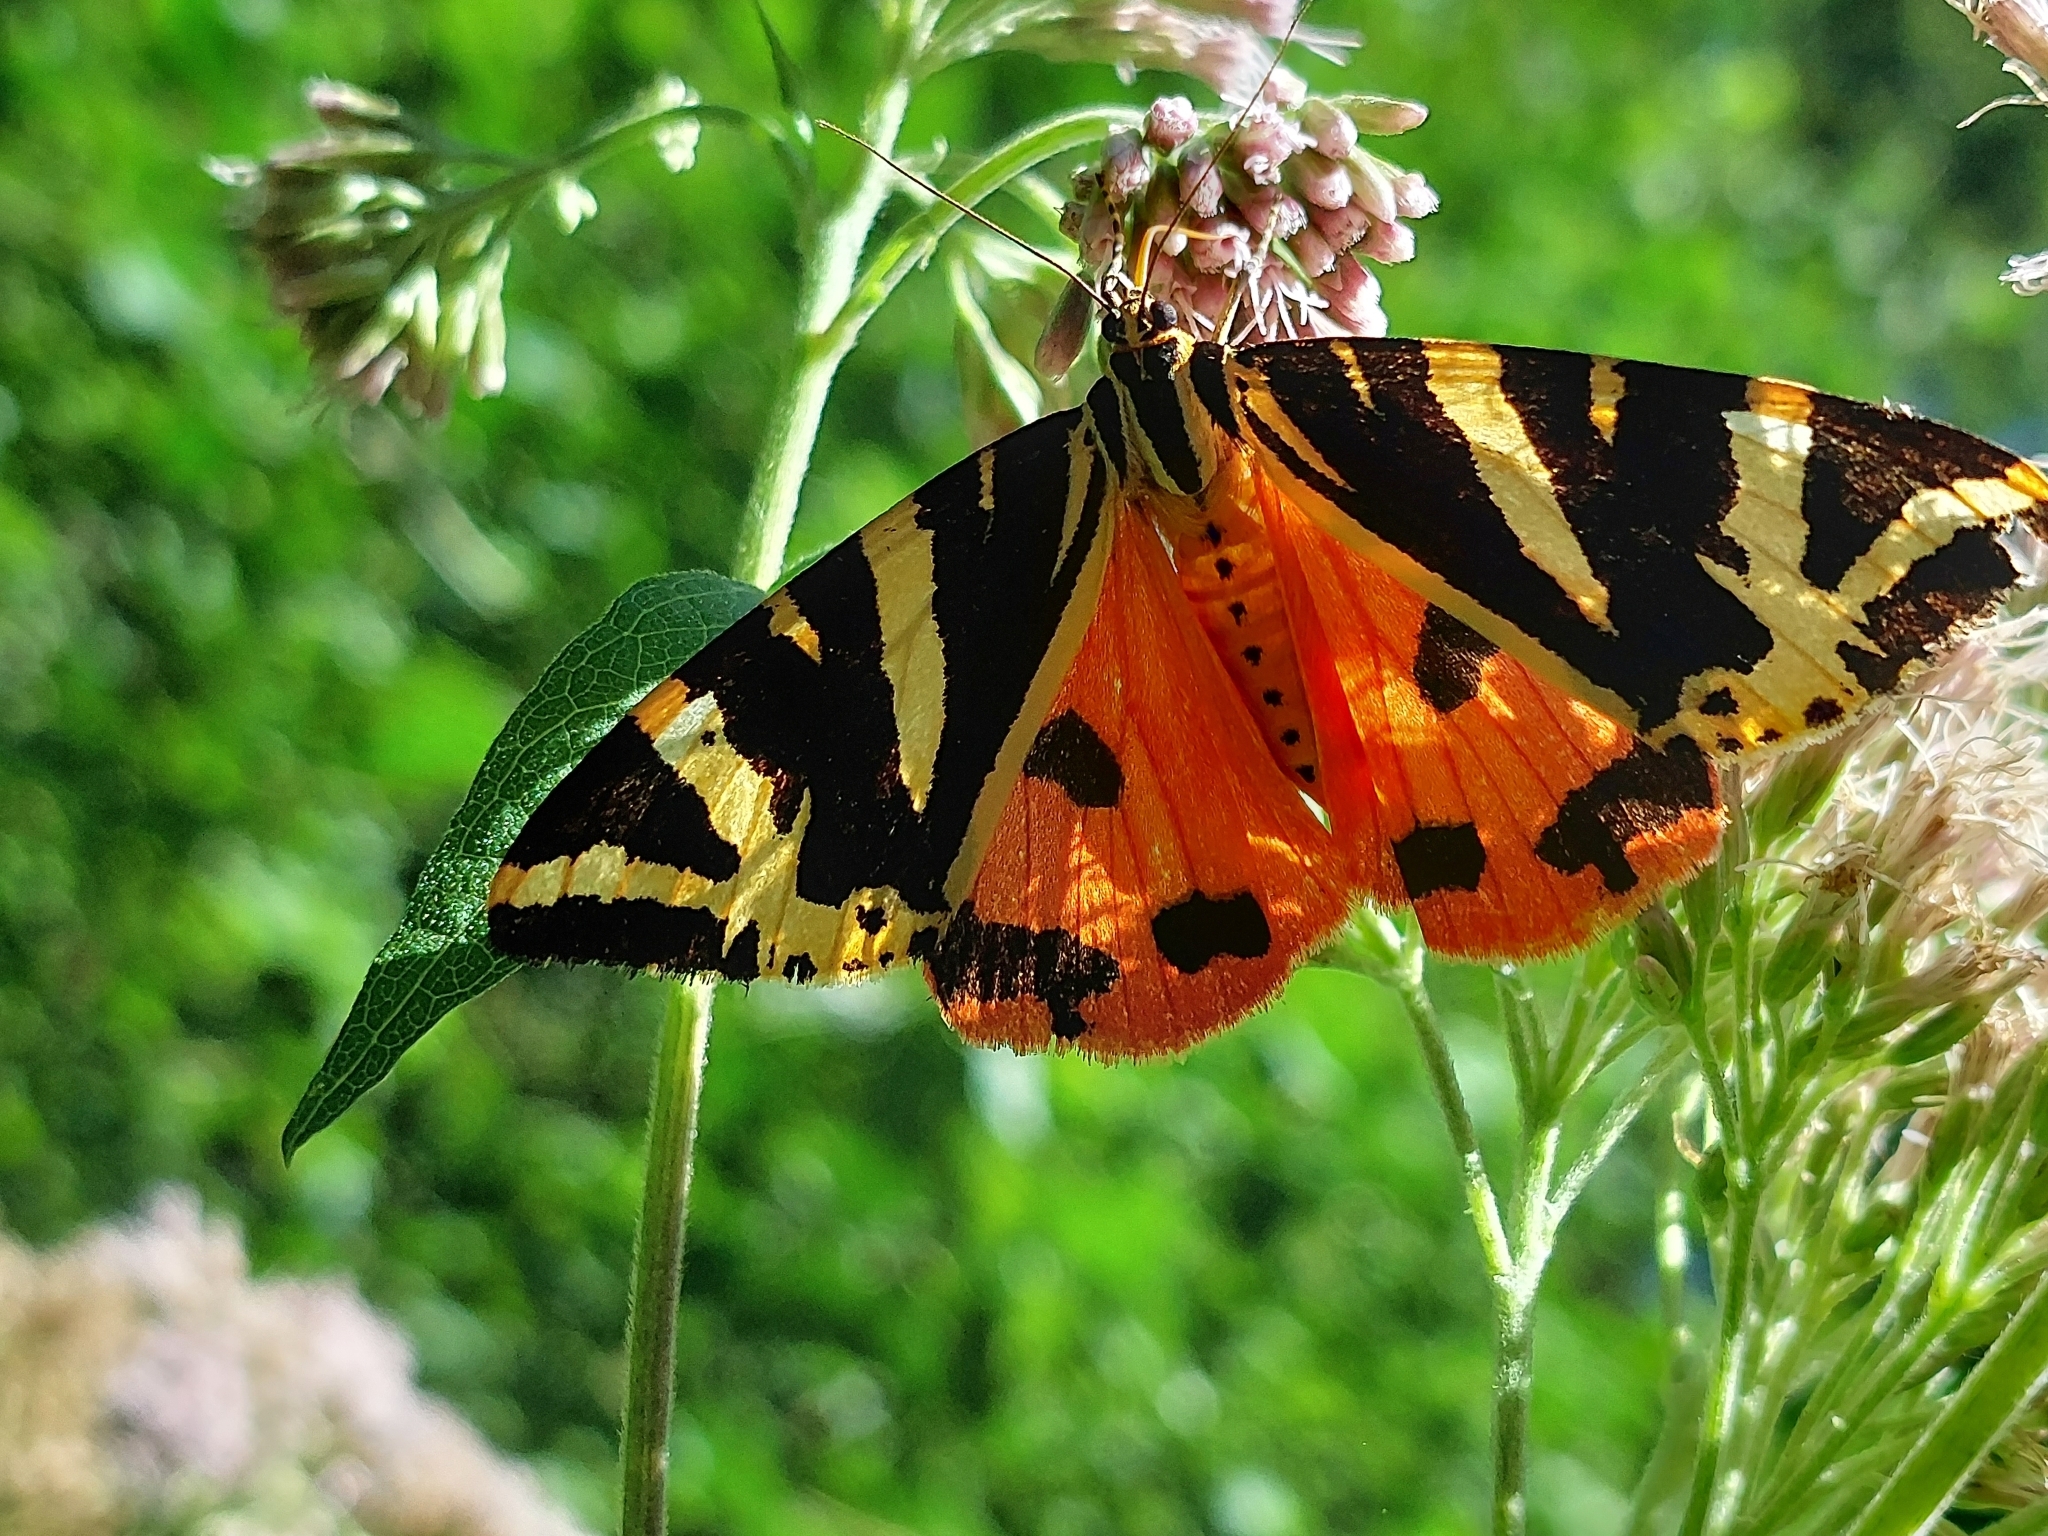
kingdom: Animalia
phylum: Arthropoda
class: Insecta
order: Lepidoptera
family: Erebidae
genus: Euplagia
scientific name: Euplagia quadripunctaria
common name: Jersey tiger
